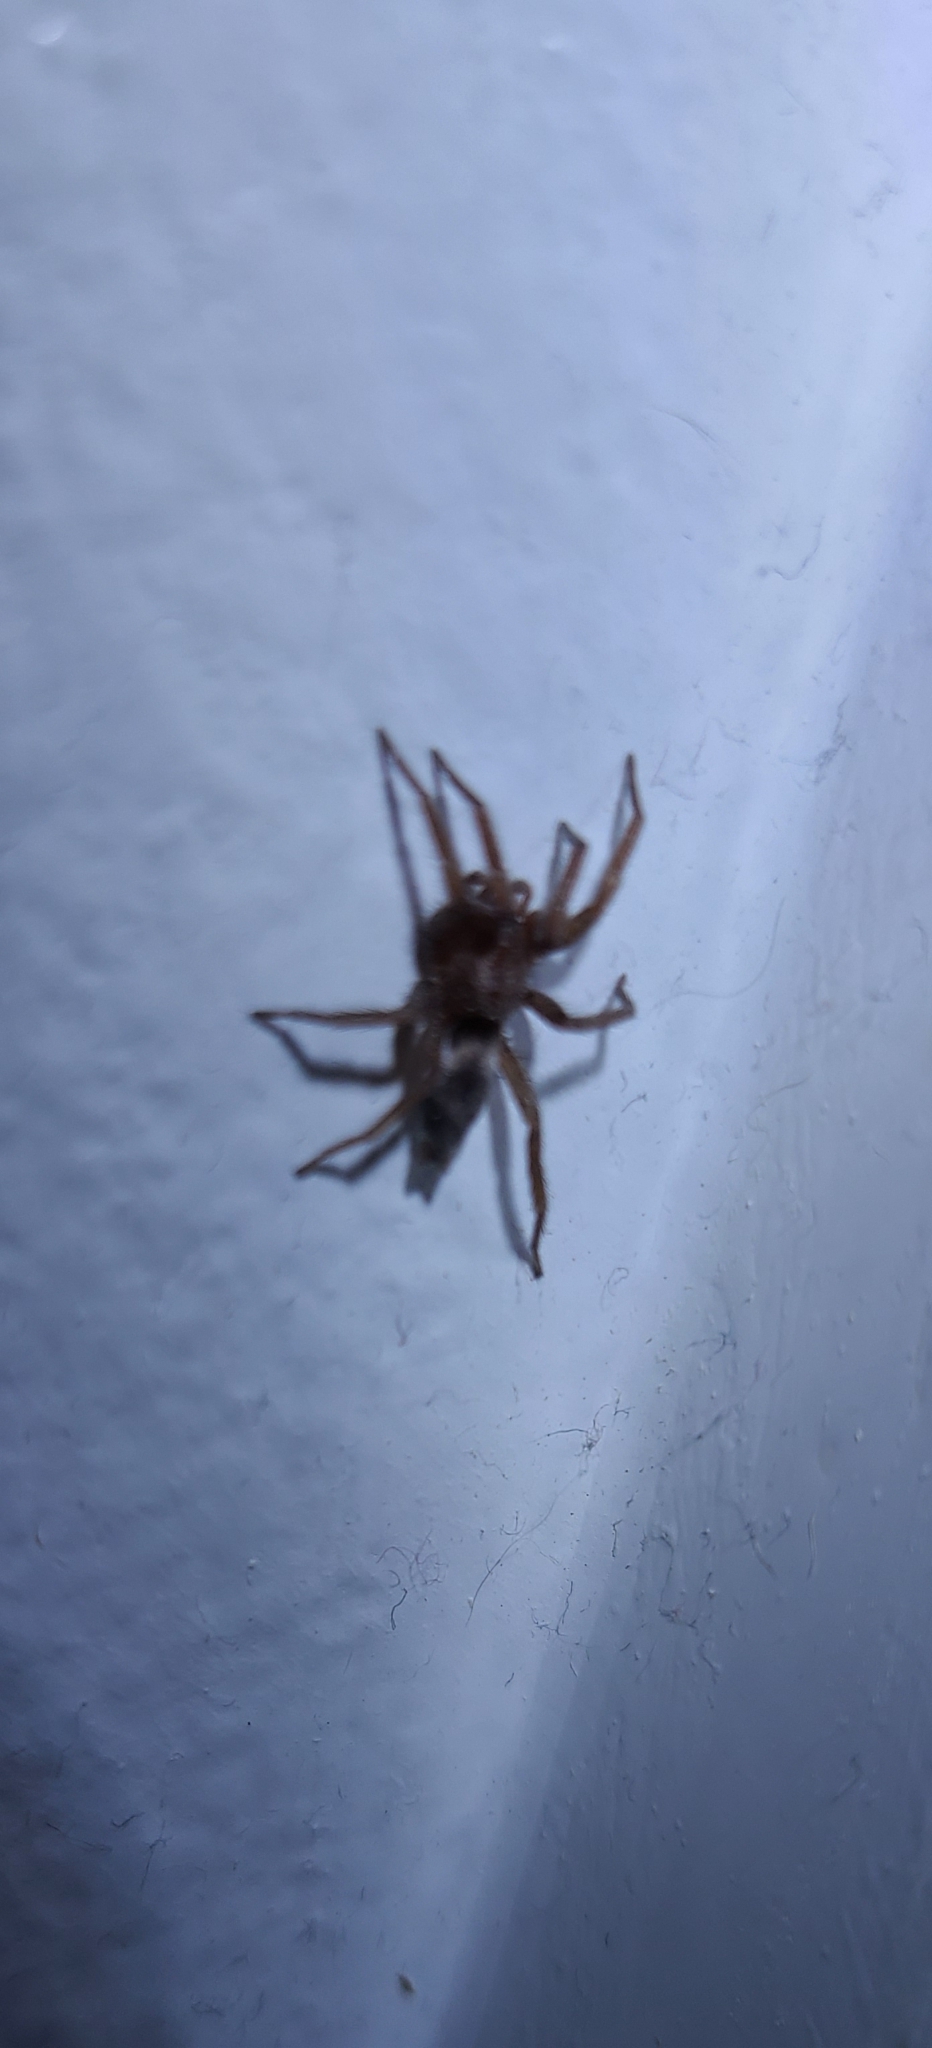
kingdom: Animalia
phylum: Arthropoda
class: Arachnida
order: Araneae
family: Gnaphosidae
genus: Scotophaeus
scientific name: Scotophaeus blackwalli
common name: Mouse spider
